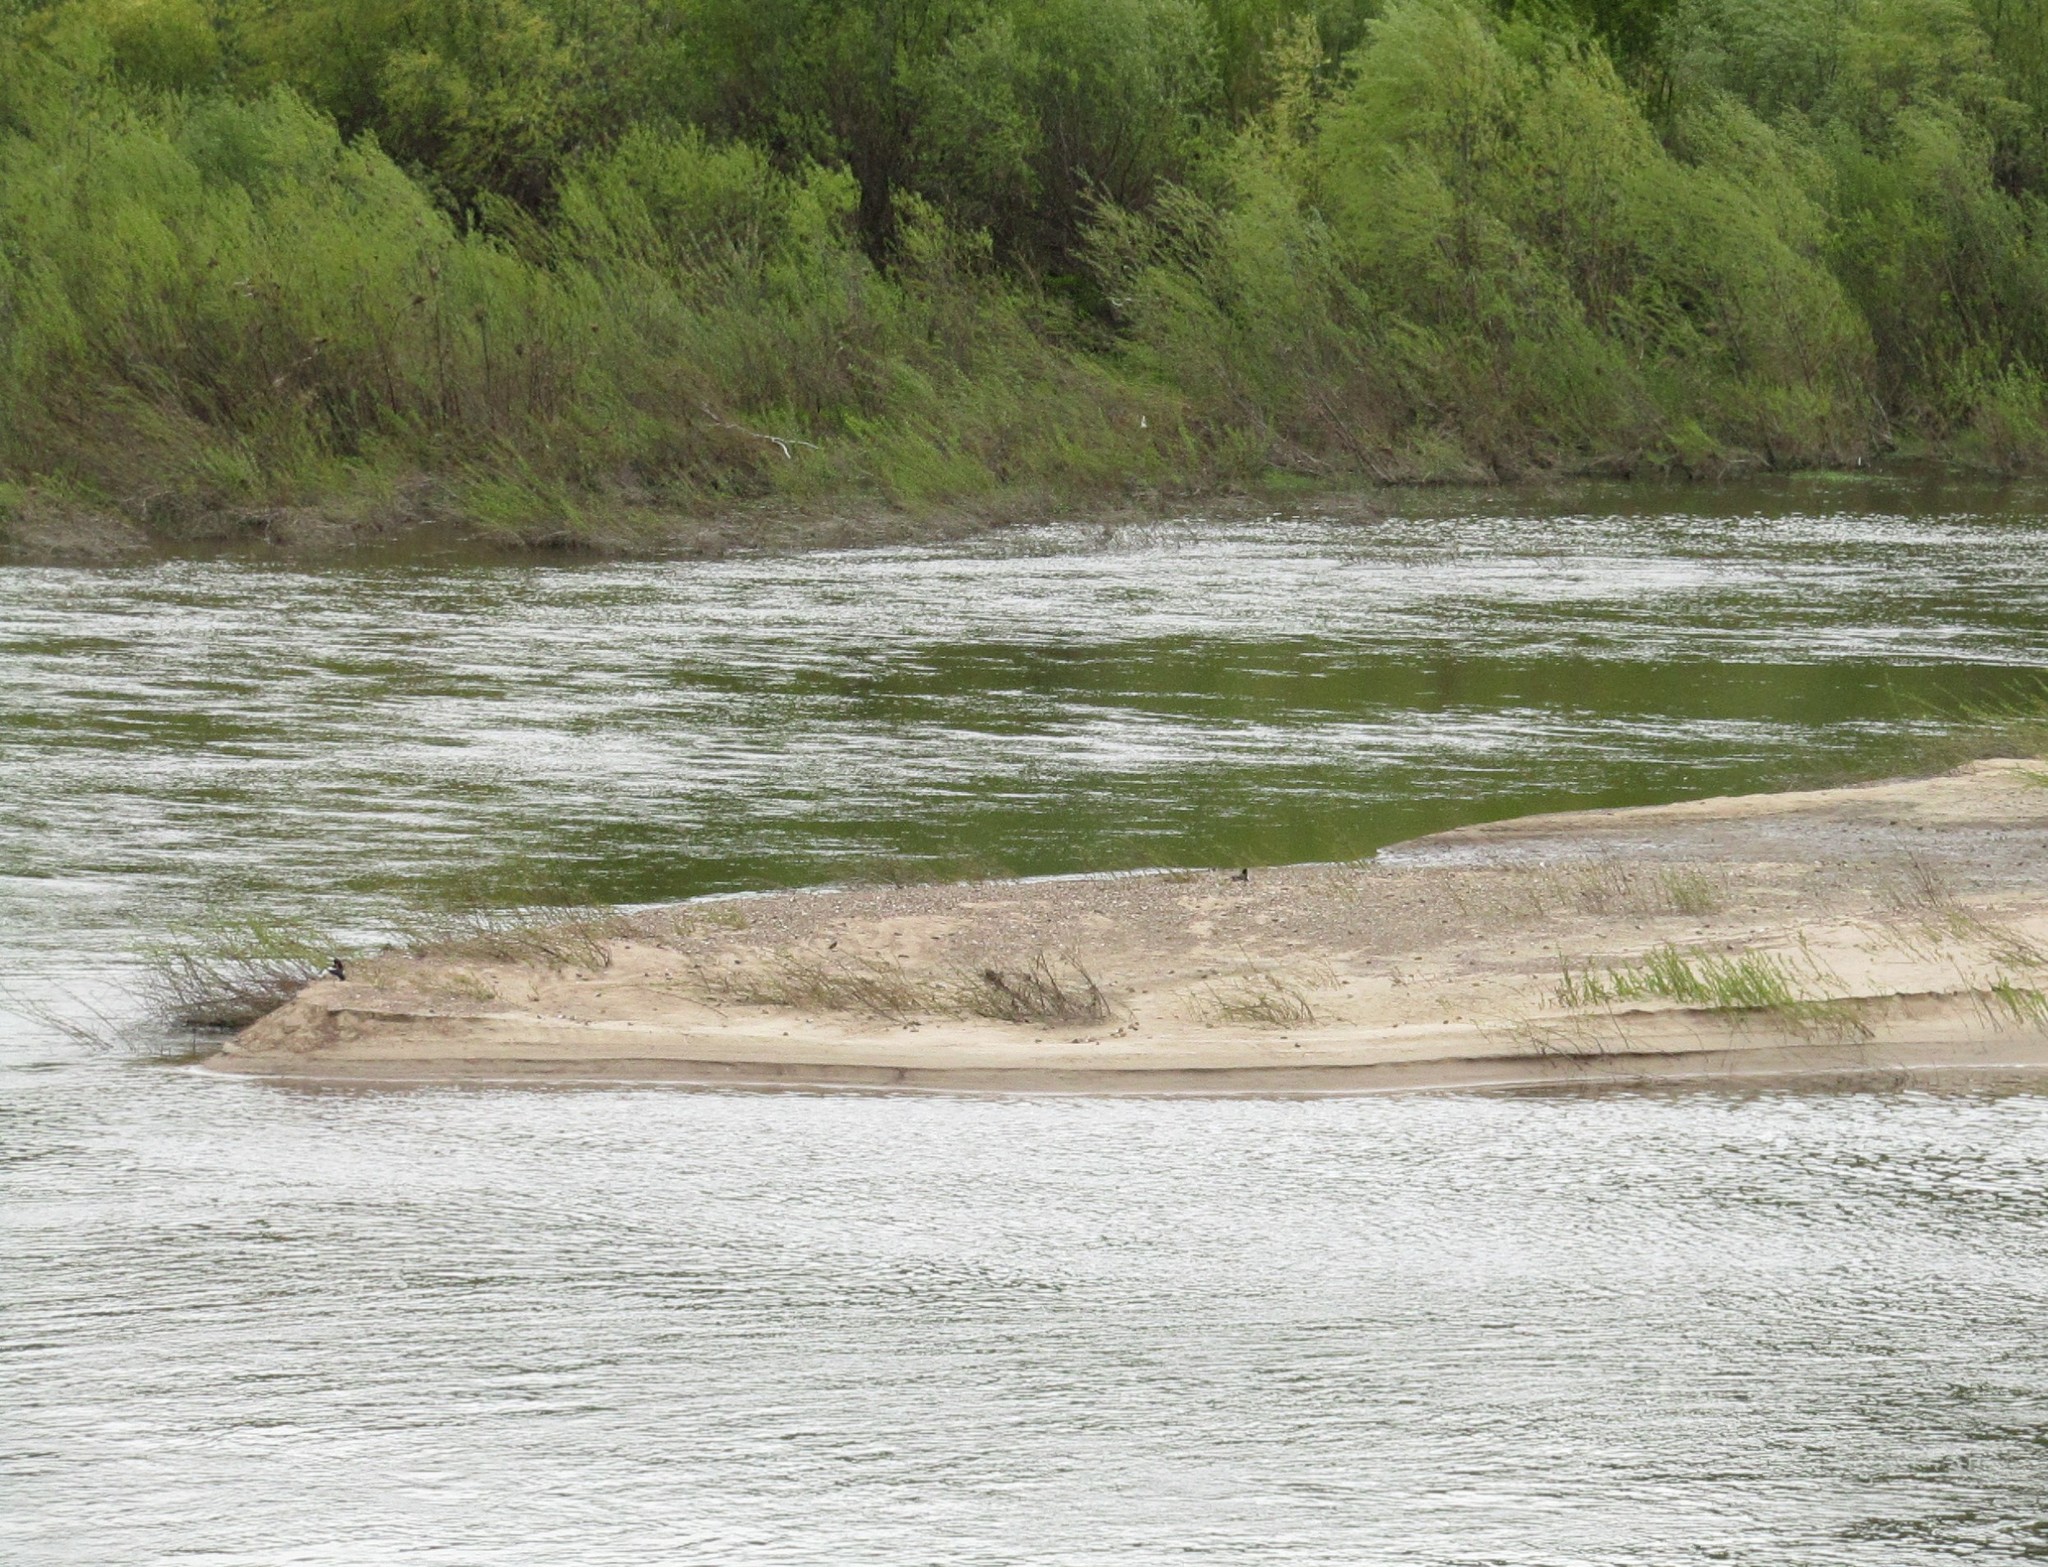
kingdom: Animalia
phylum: Chordata
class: Aves
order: Charadriiformes
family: Haematopodidae
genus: Haematopus
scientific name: Haematopus ostralegus
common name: Eurasian oystercatcher
